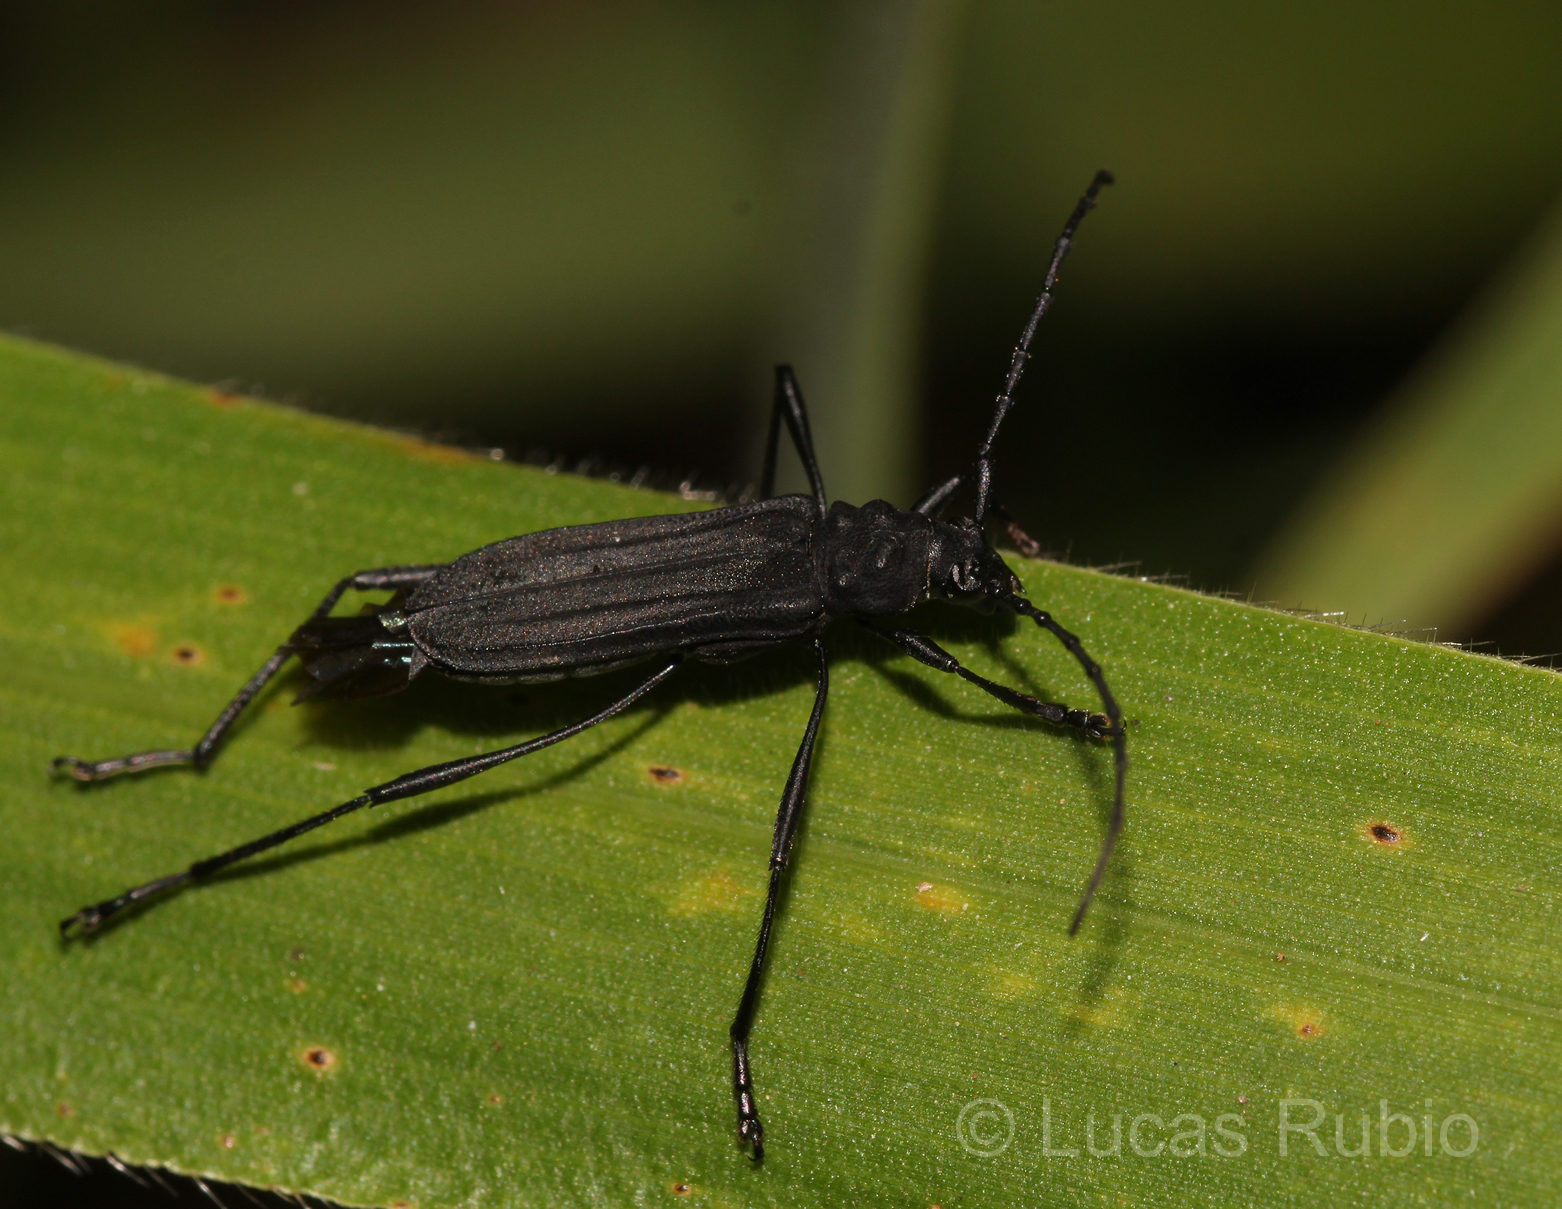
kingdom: Animalia
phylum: Arthropoda
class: Insecta
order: Coleoptera
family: Cerambycidae
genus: Listroptera
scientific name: Listroptera tenebricosa
